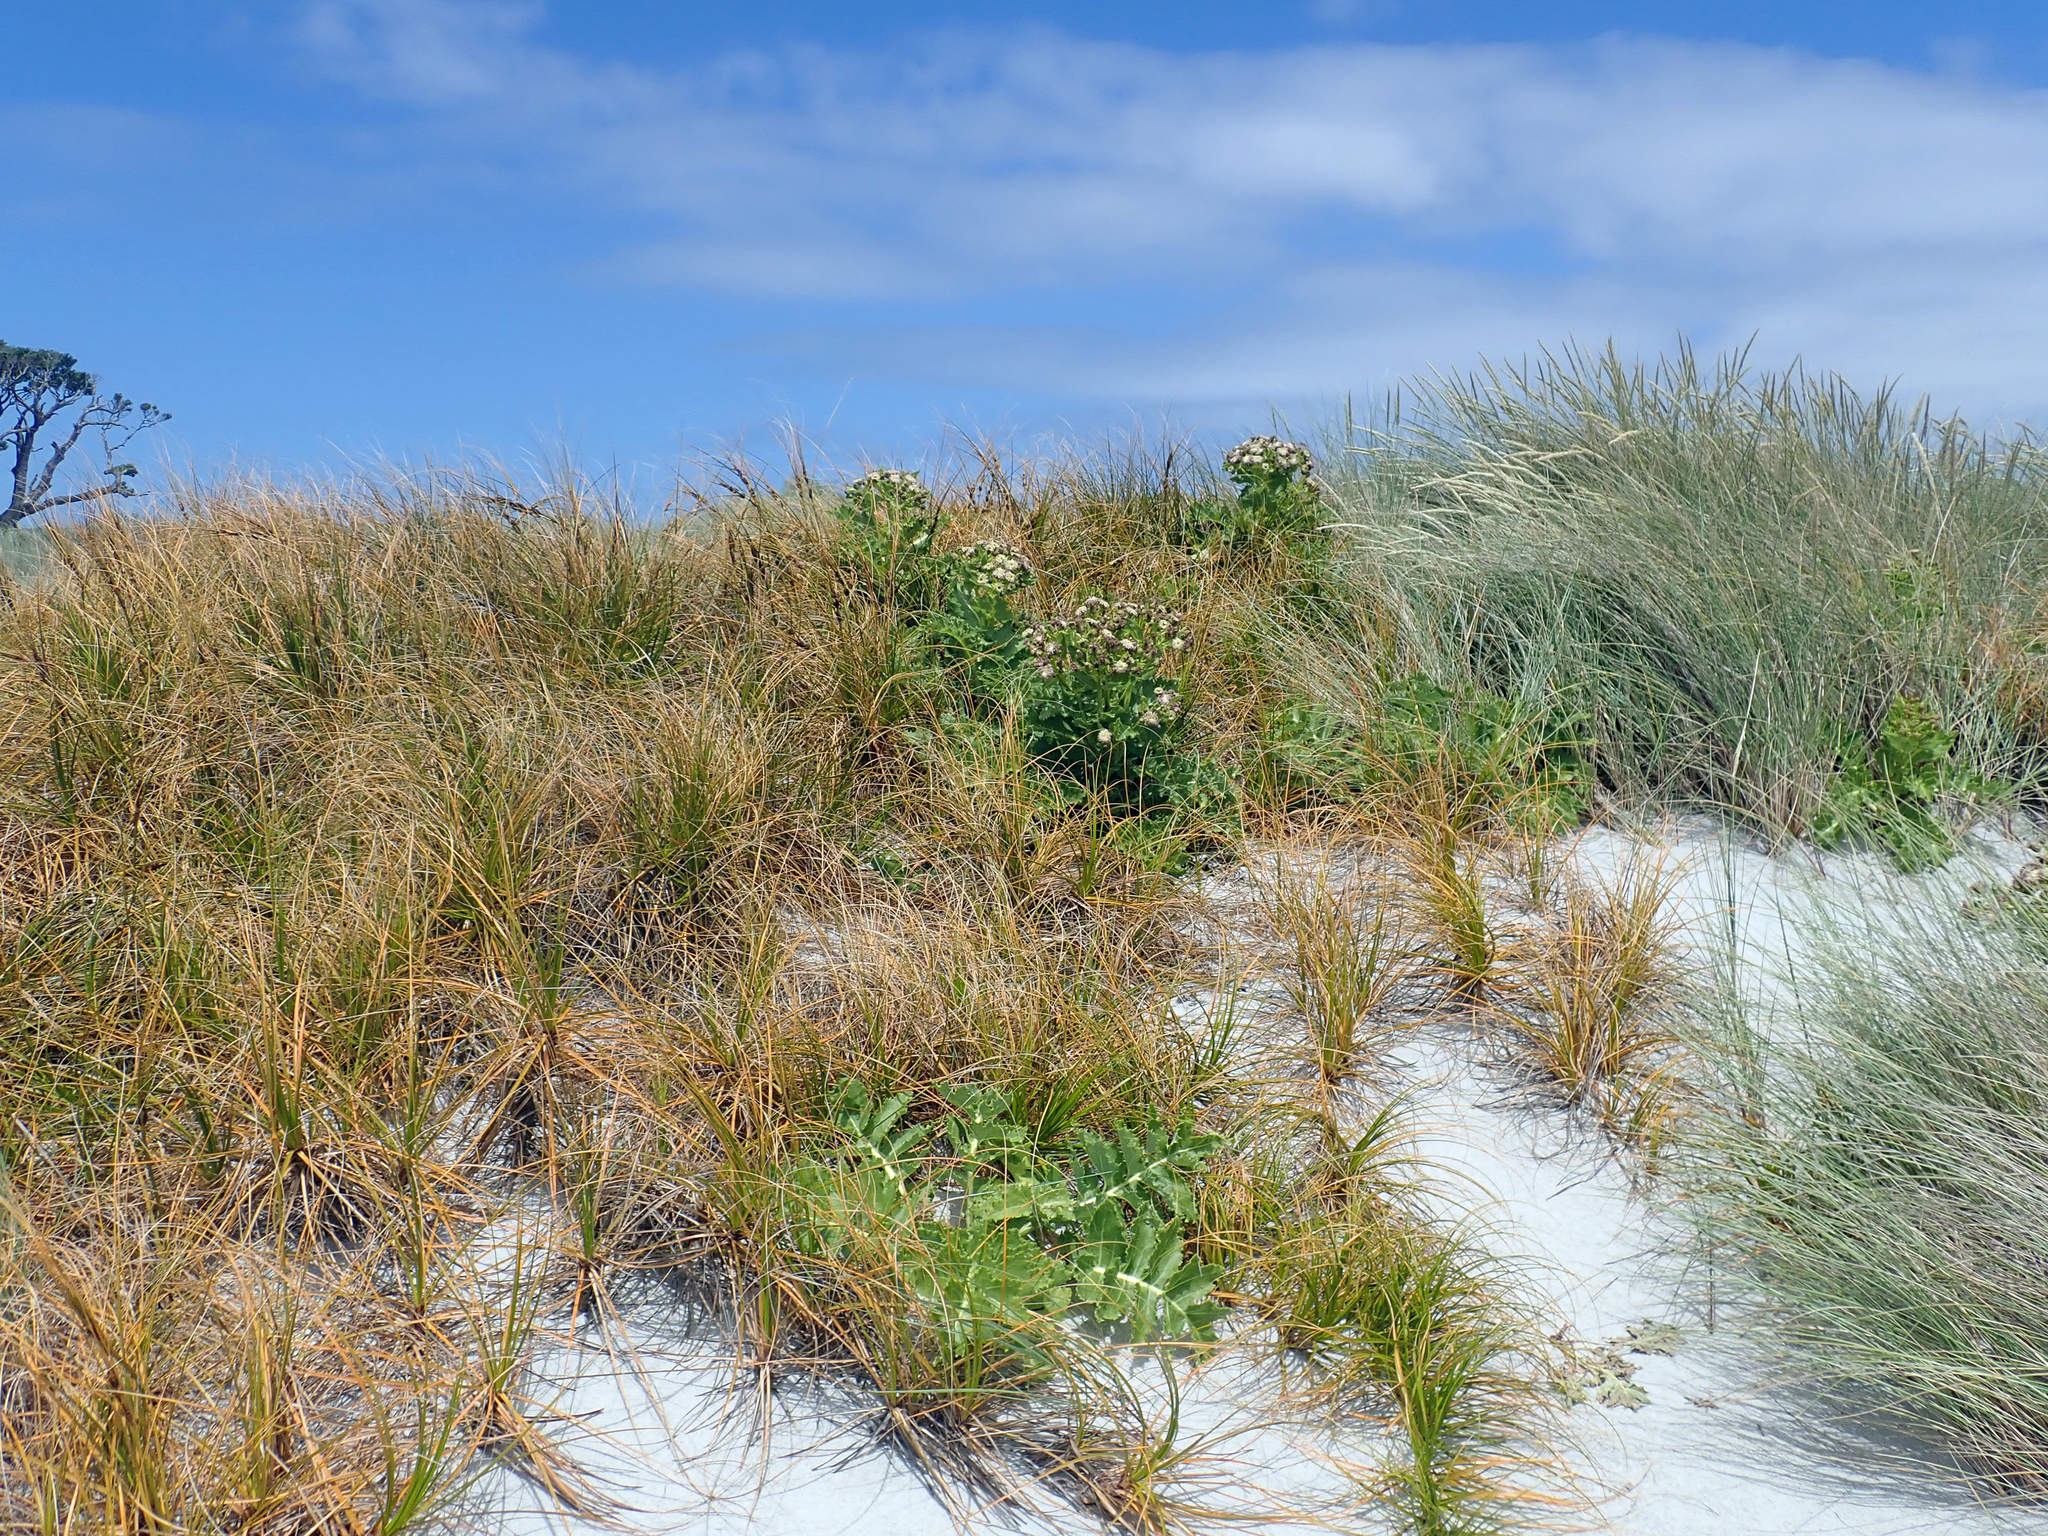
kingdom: Plantae
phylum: Tracheophyta
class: Liliopsida
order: Poales
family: Cyperaceae
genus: Ficinia
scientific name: Ficinia spiralis
